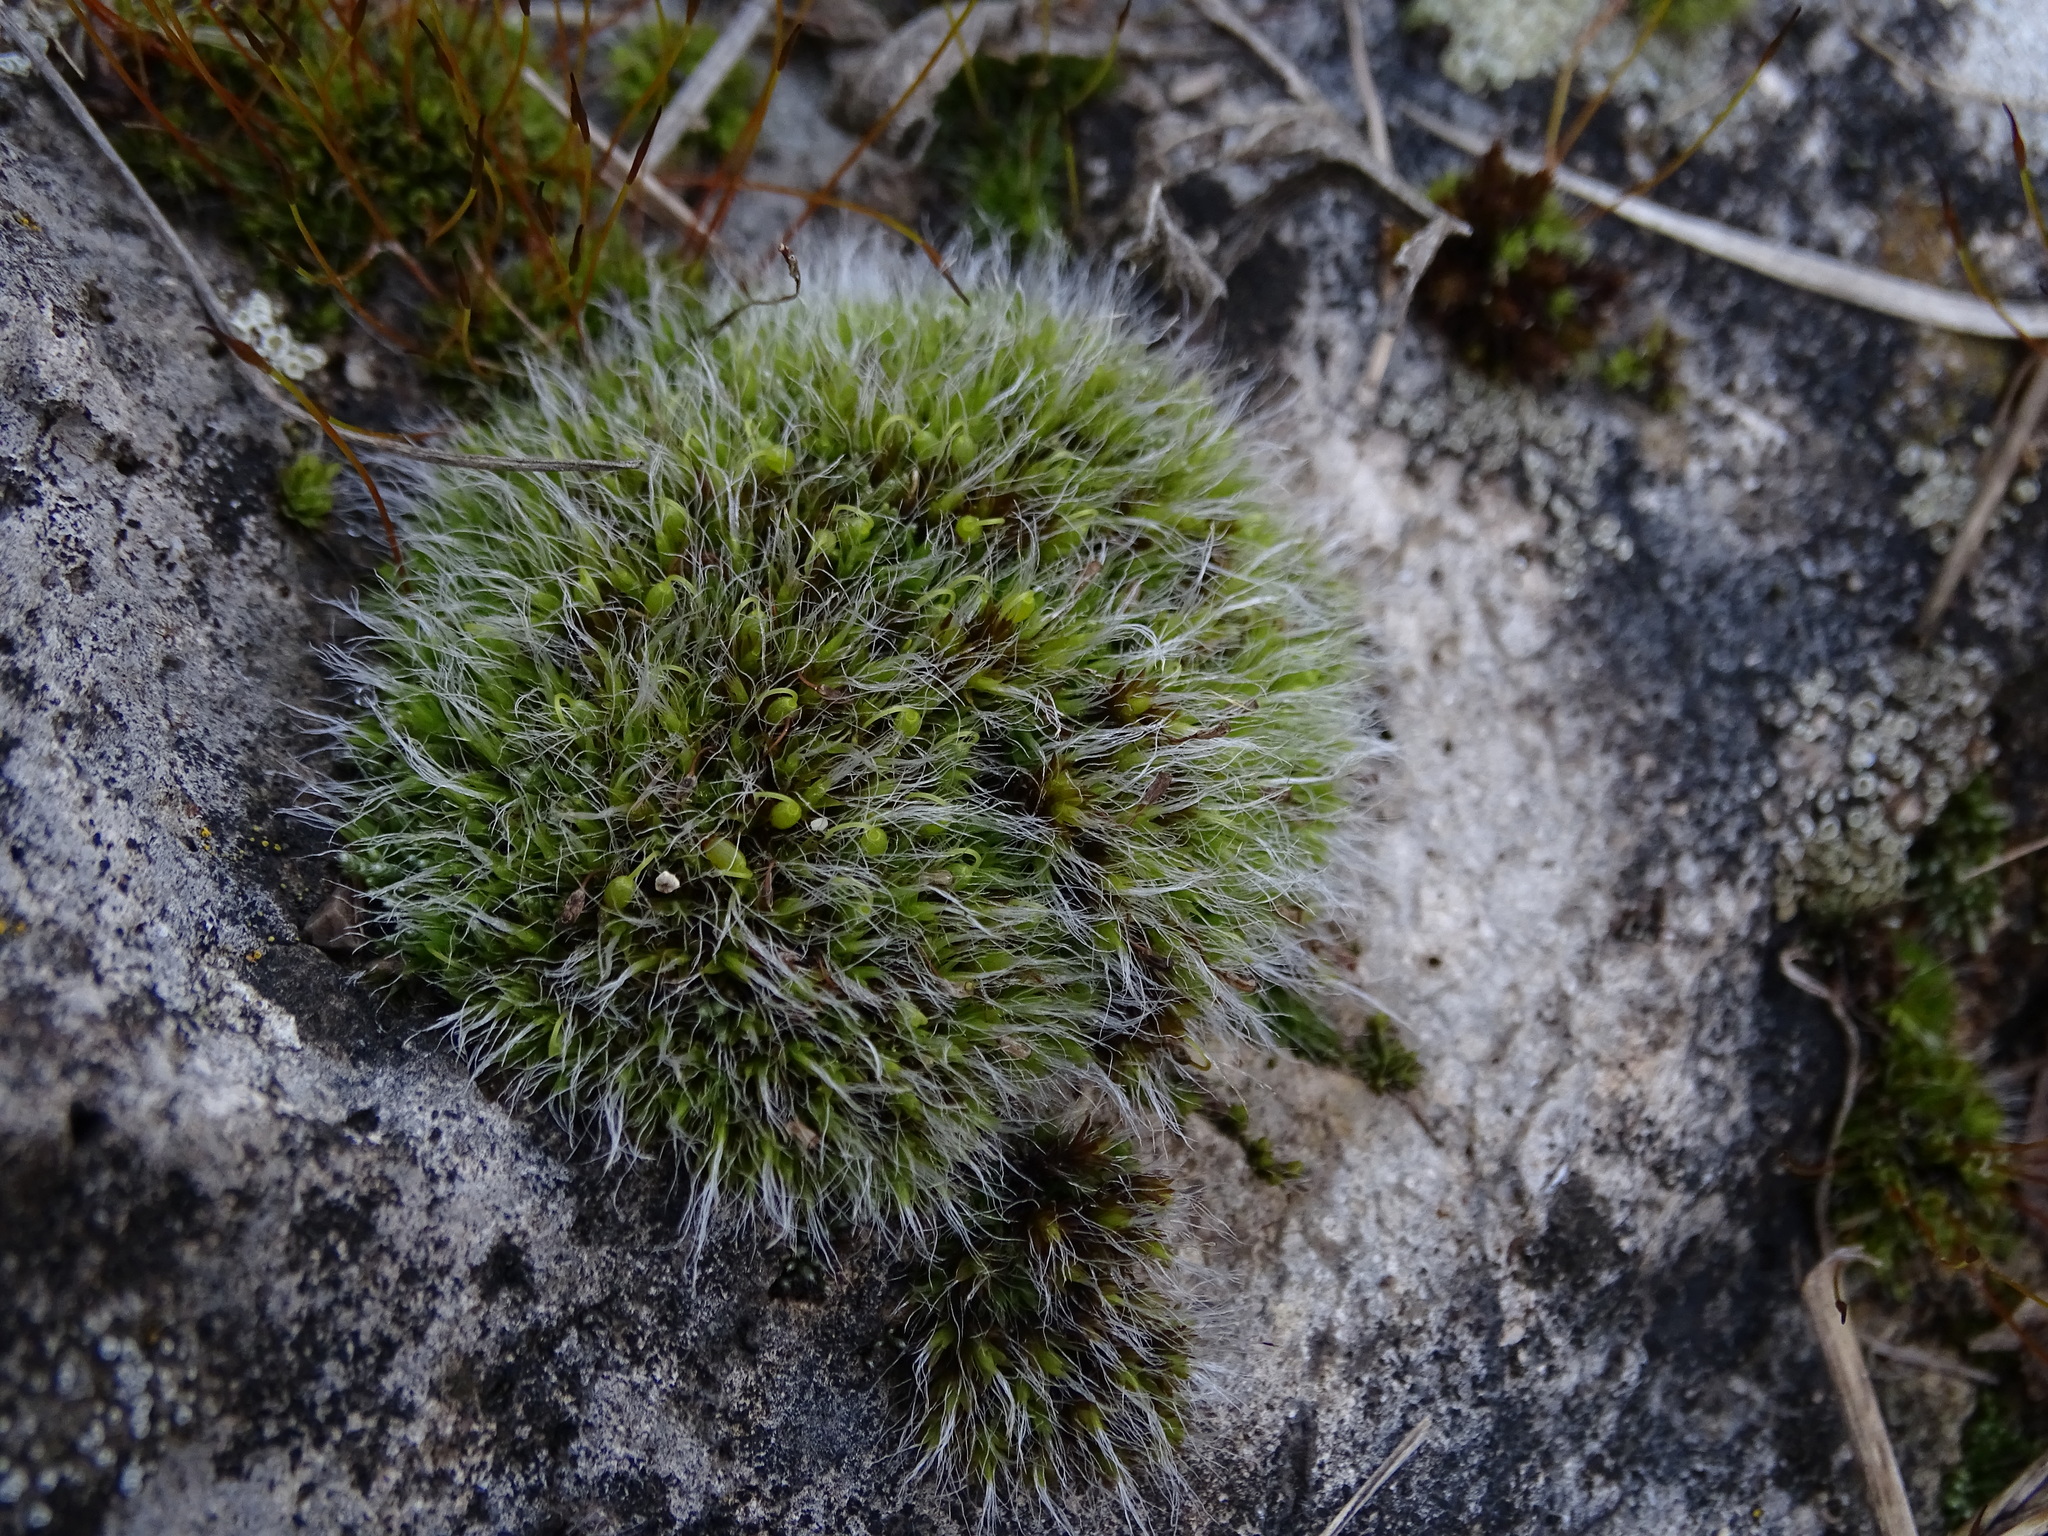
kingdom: Plantae
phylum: Bryophyta
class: Bryopsida
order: Grimmiales
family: Grimmiaceae
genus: Grimmia
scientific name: Grimmia pulvinata
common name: Grey-cushioned grimmia
